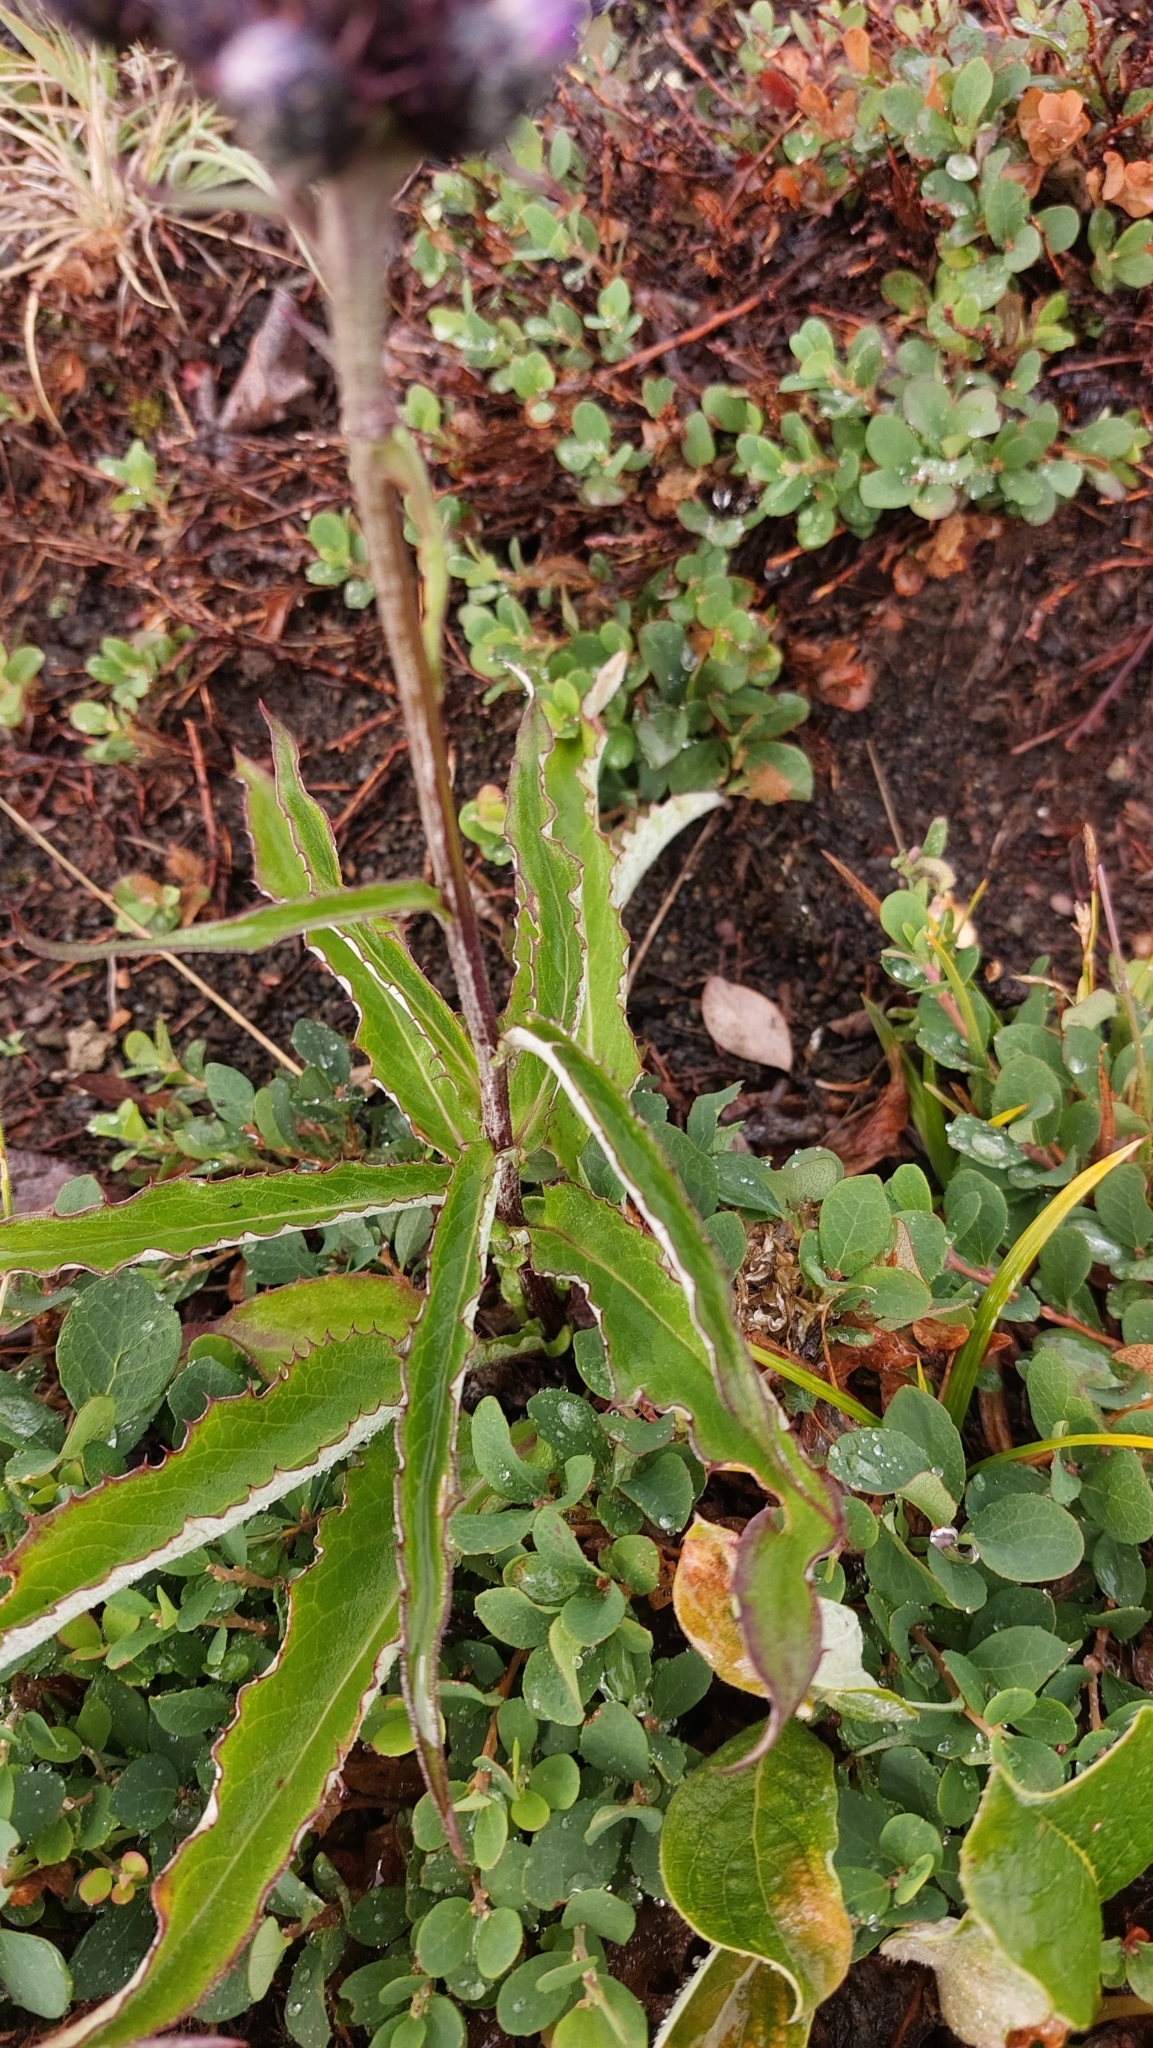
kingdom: Plantae
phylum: Tracheophyta
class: Magnoliopsida
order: Asterales
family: Asteraceae
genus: Saussurea
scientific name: Saussurea pseudotilesii
